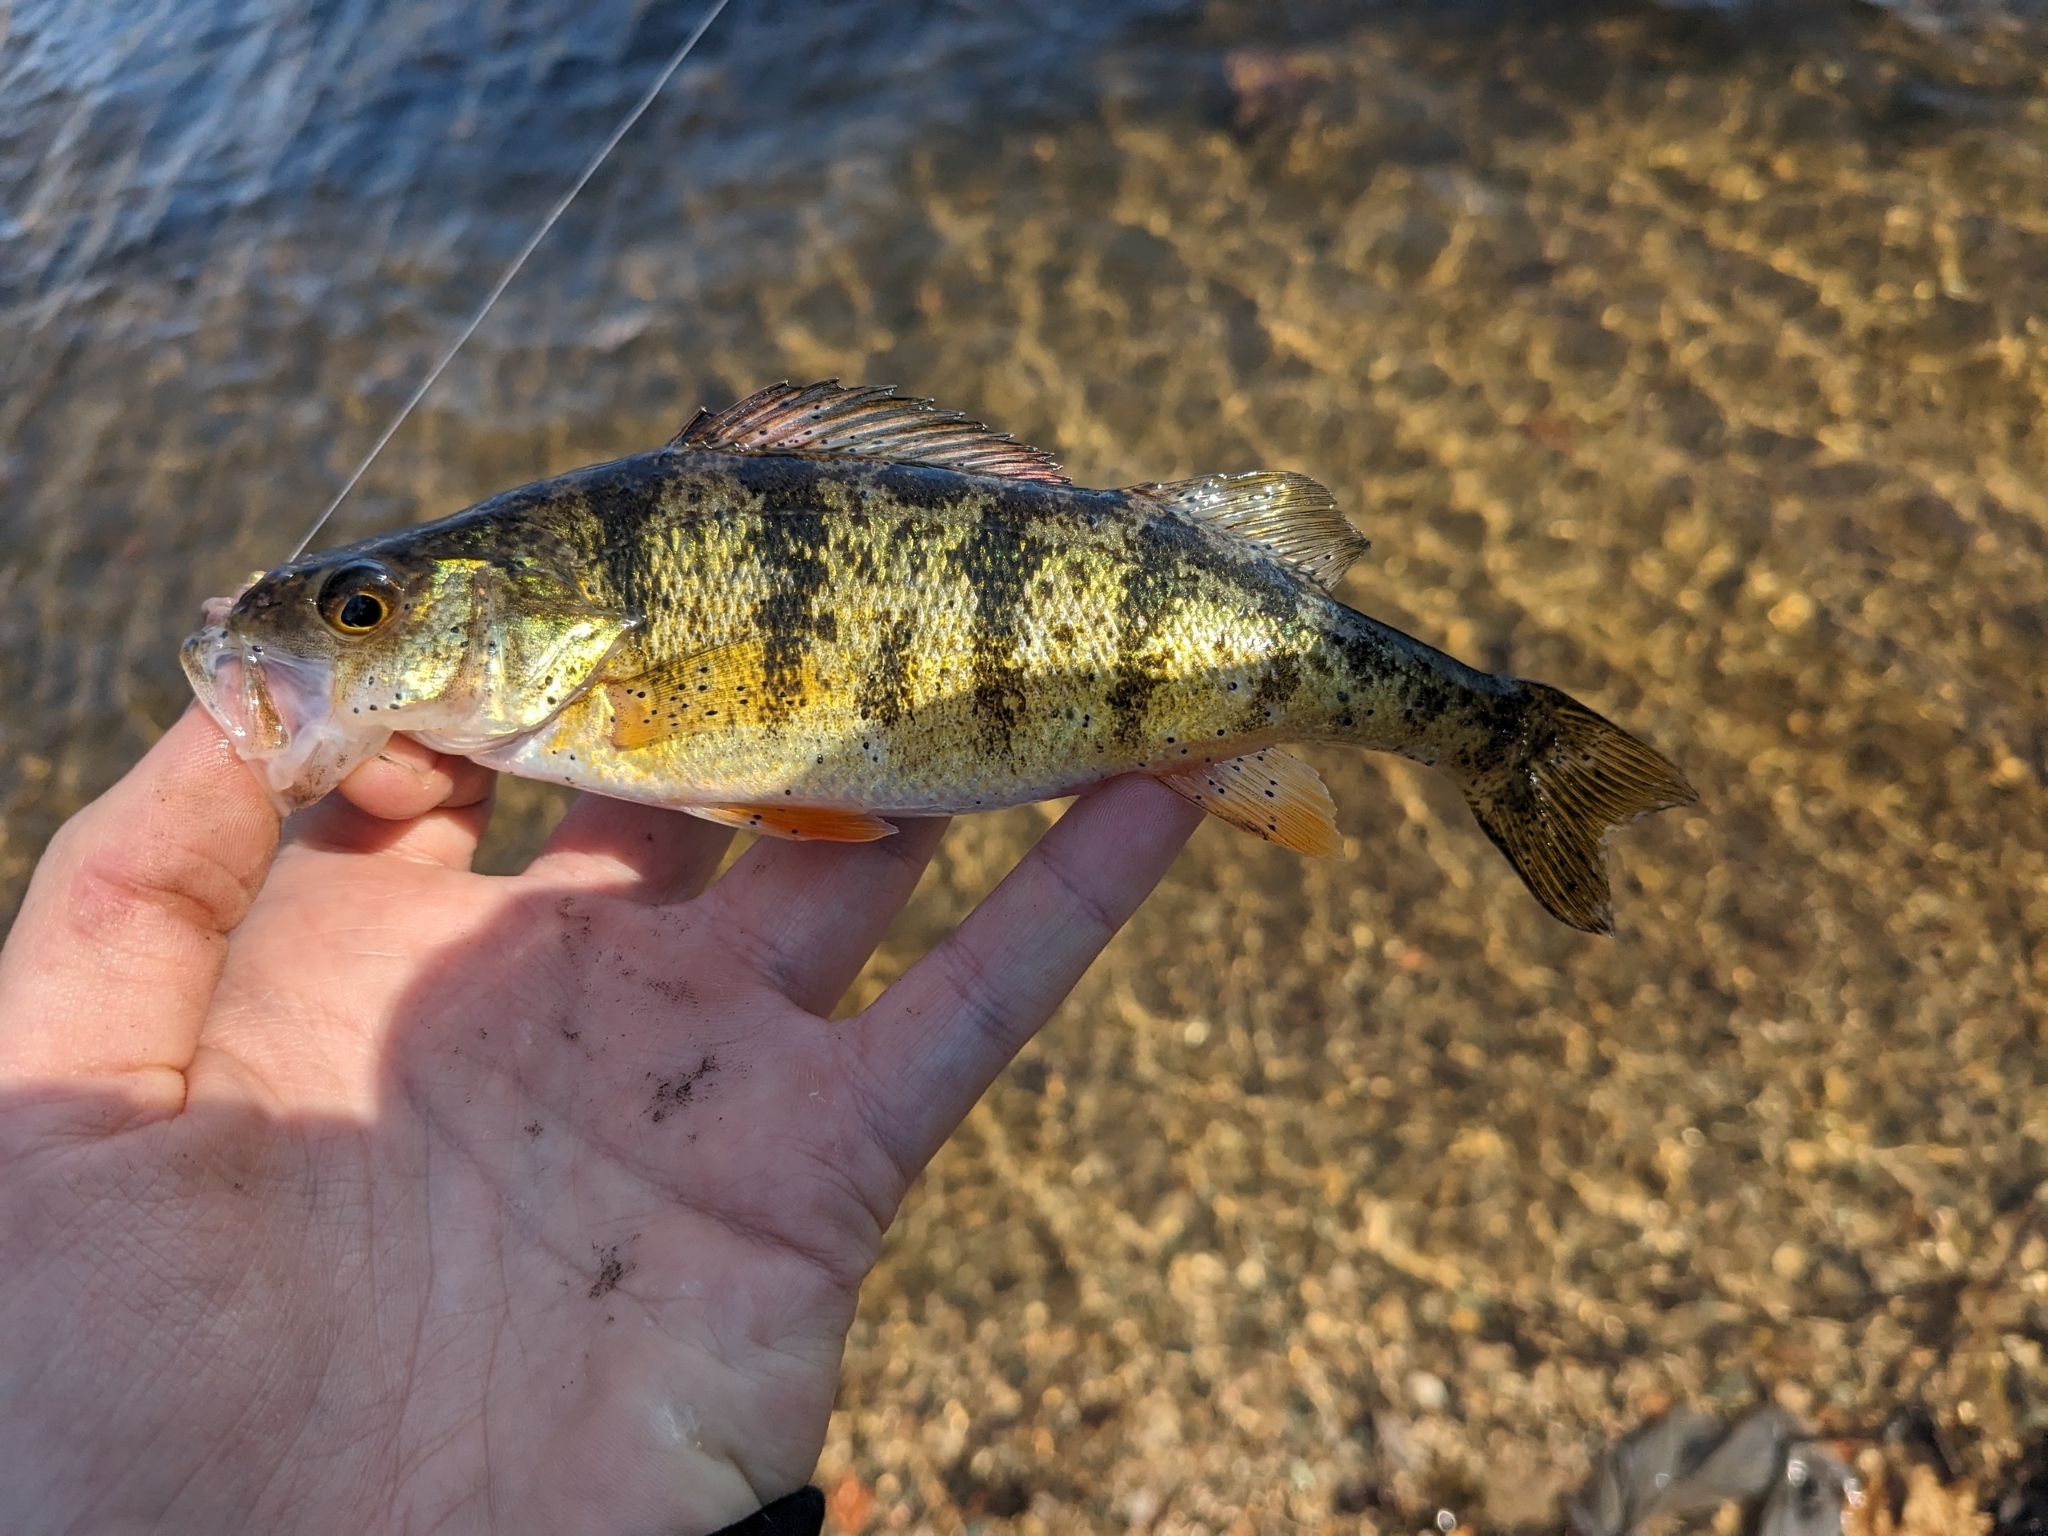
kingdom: Animalia
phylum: Chordata
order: Perciformes
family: Percidae
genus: Perca
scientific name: Perca flavescens
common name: Yellow perch
